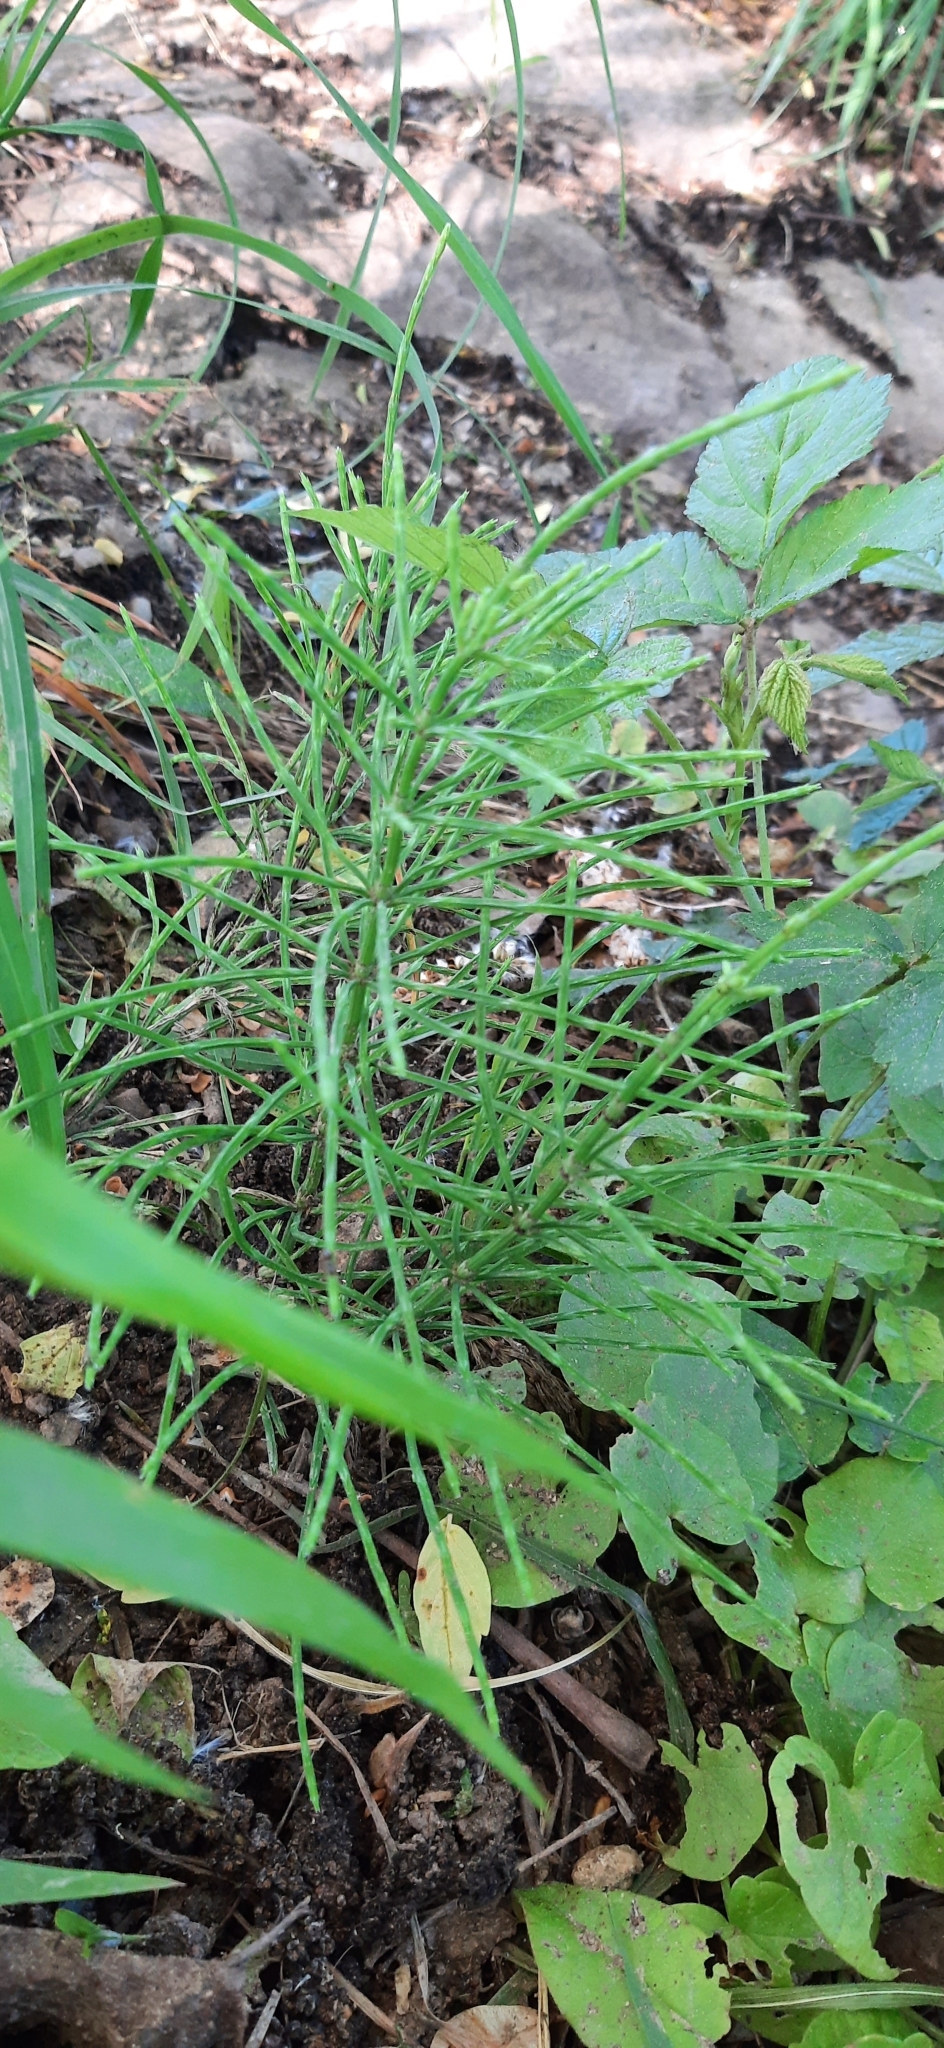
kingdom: Plantae
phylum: Tracheophyta
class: Polypodiopsida
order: Equisetales
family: Equisetaceae
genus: Equisetum
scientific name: Equisetum arvense
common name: Field horsetail
